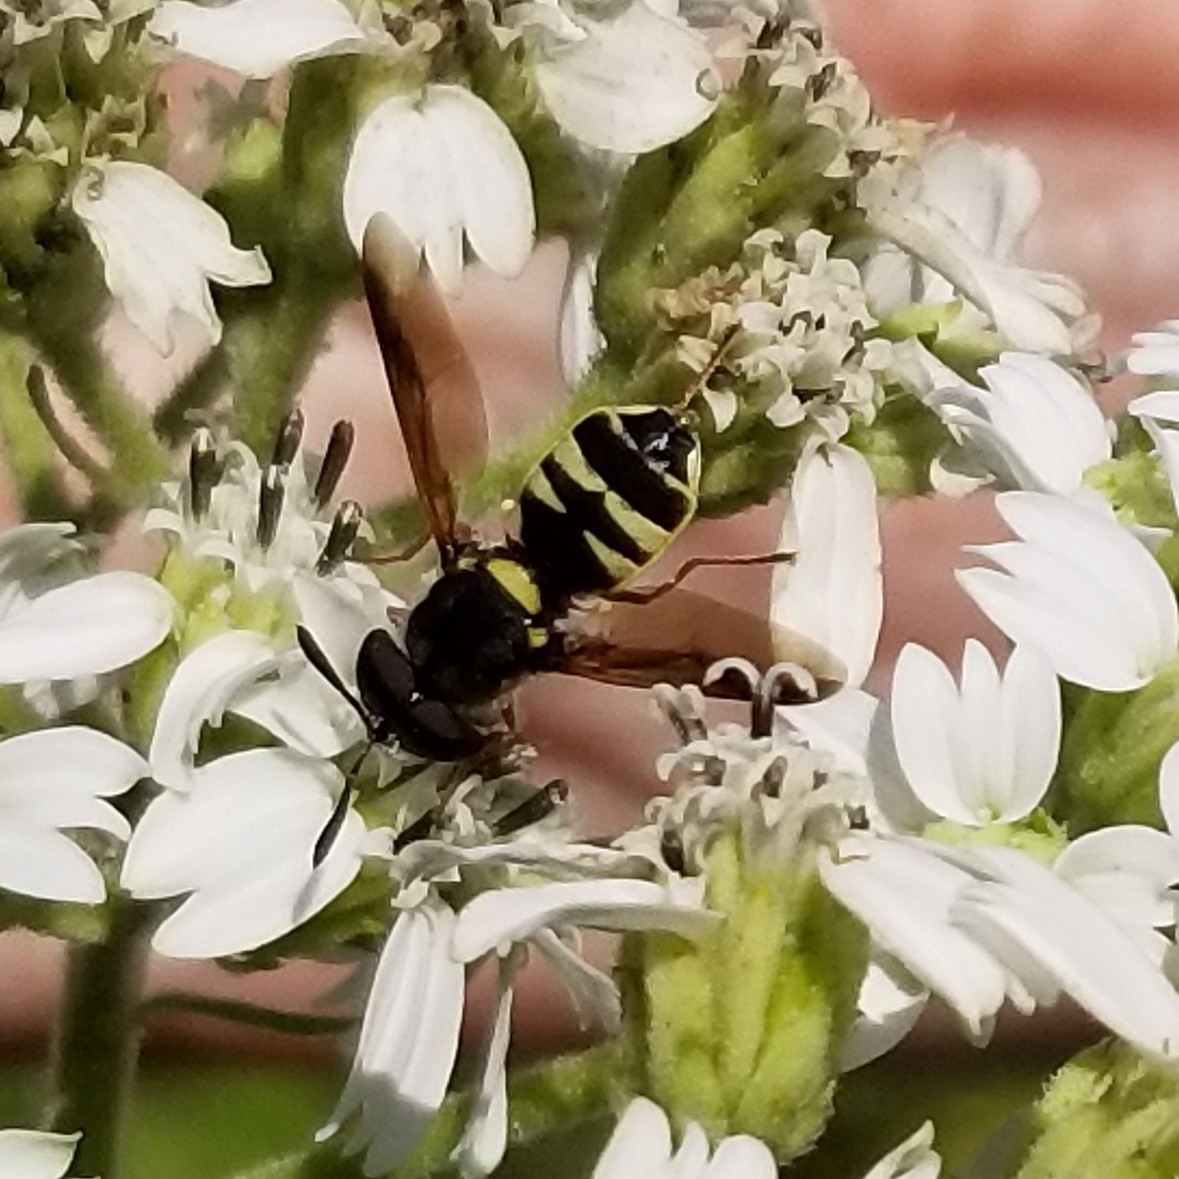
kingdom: Animalia
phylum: Arthropoda
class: Insecta
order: Diptera
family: Stratiomyidae
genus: Hoplitimyia
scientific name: Hoplitimyia constans
